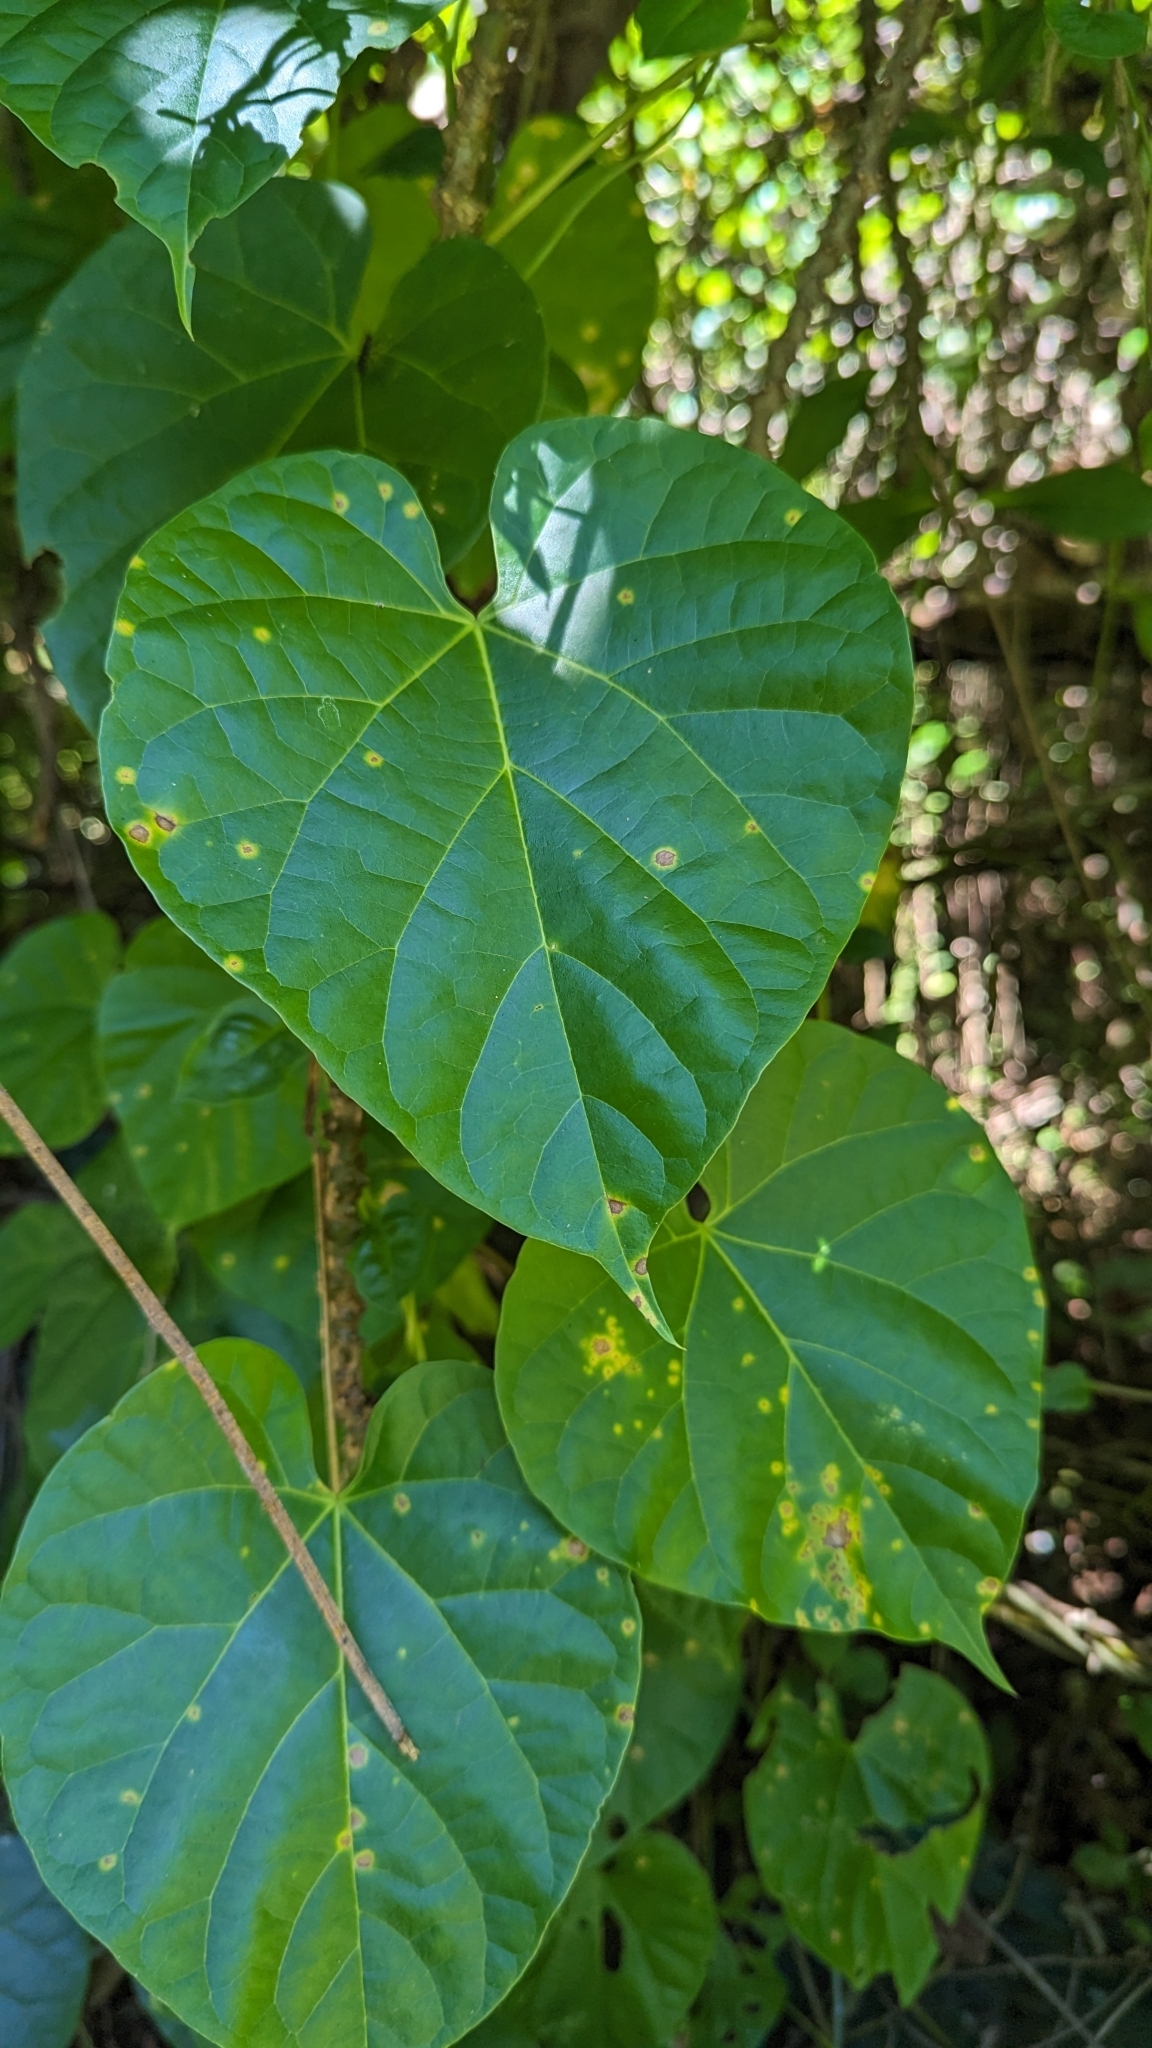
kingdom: Plantae
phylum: Tracheophyta
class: Magnoliopsida
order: Ranunculales
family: Menispermaceae
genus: Tinospora
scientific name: Tinospora crispa
